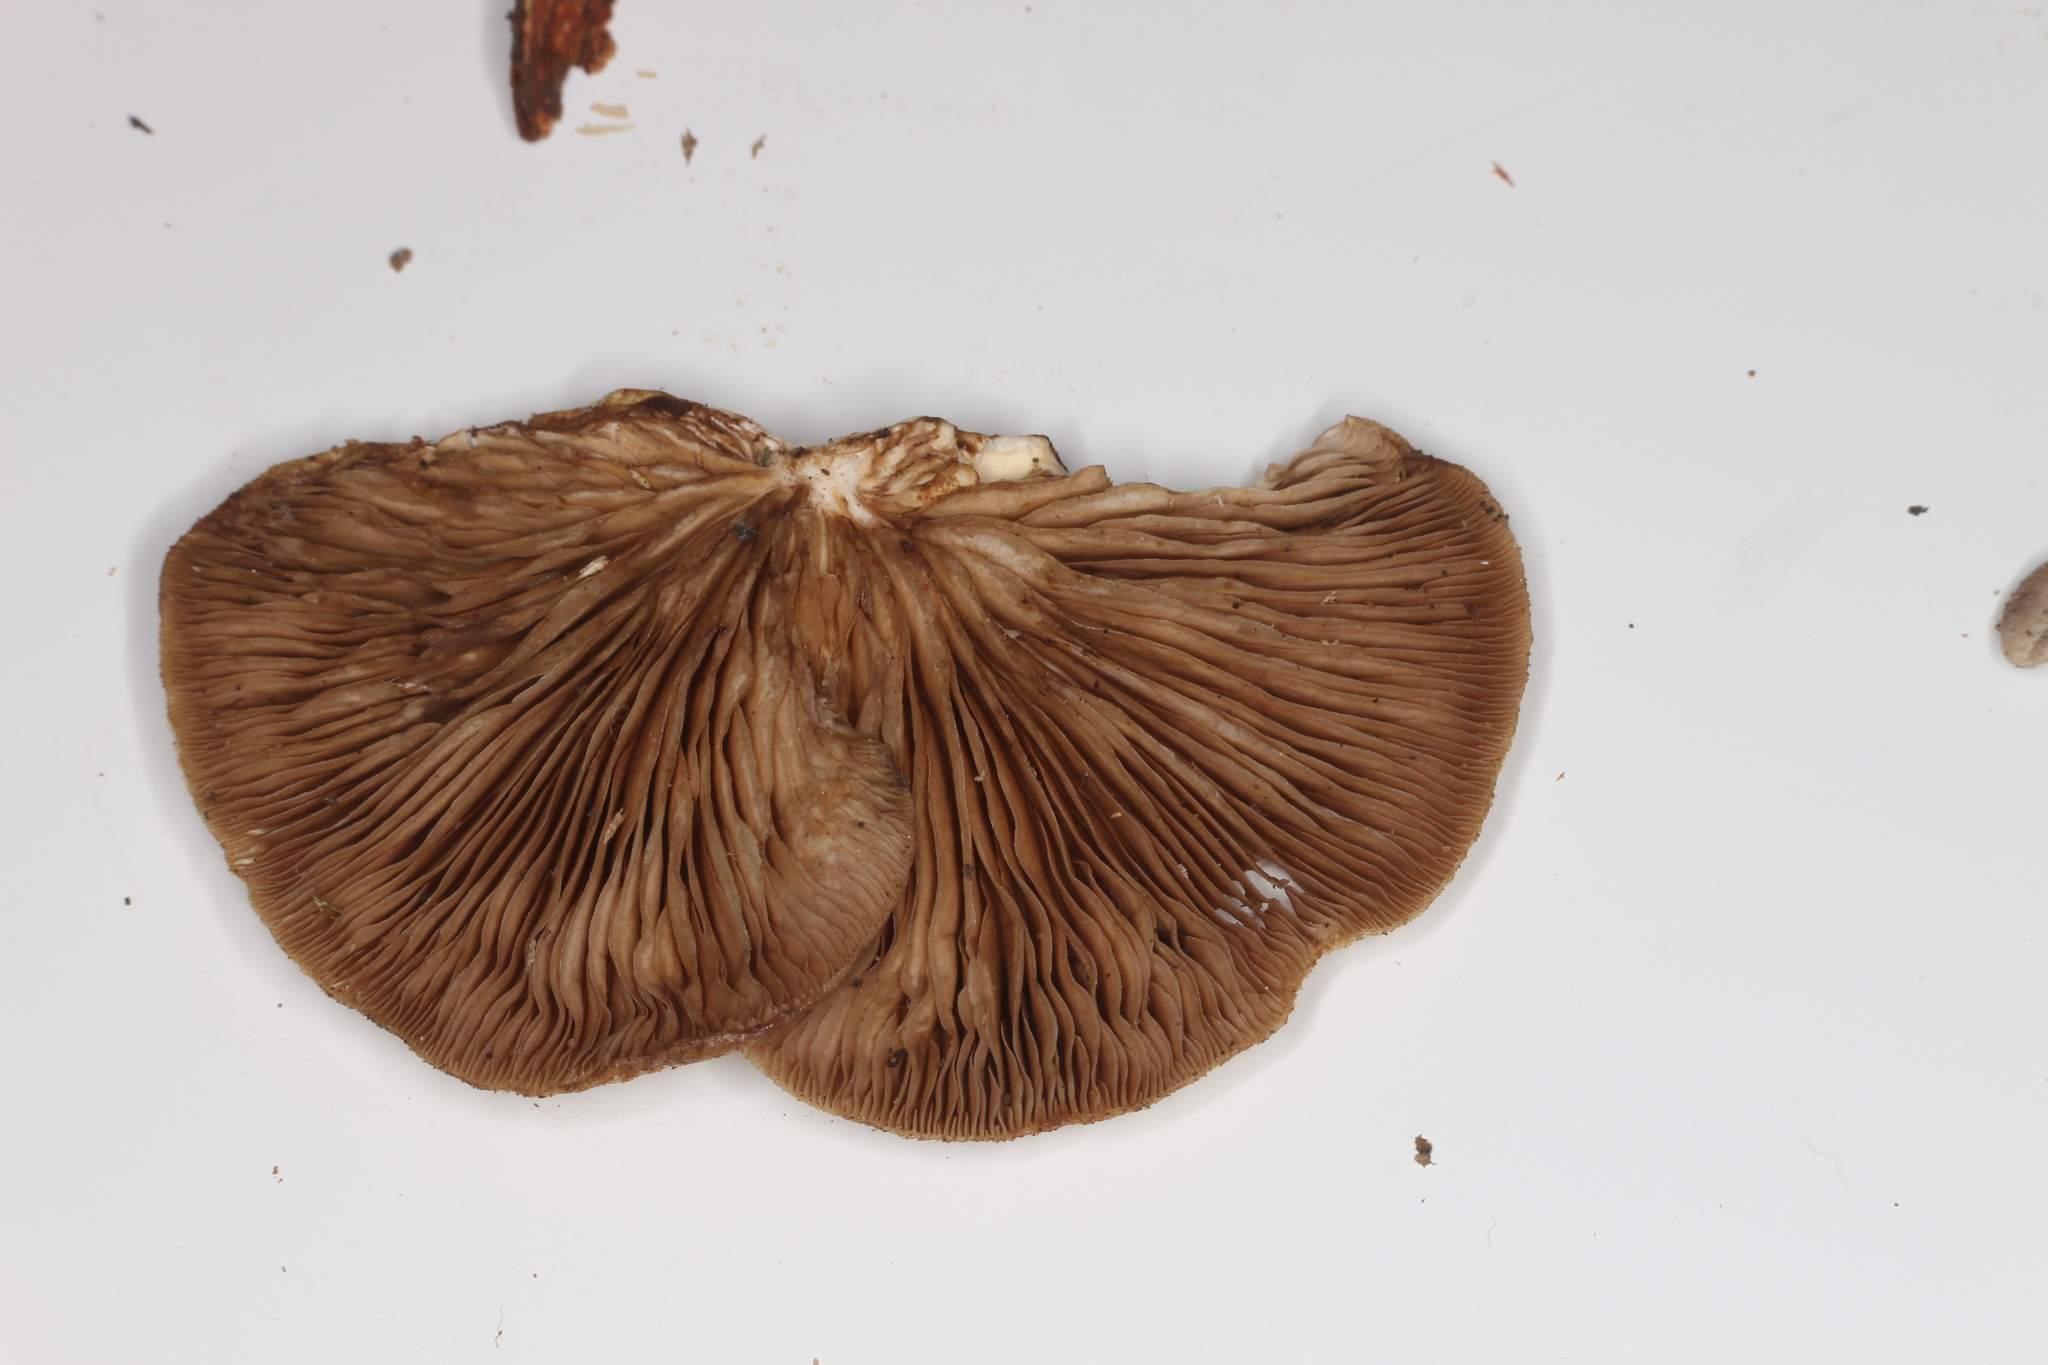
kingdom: Fungi
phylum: Basidiomycota
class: Agaricomycetes
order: Agaricales
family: Crepidotaceae
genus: Crepidotus
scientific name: Crepidotus calolepis
